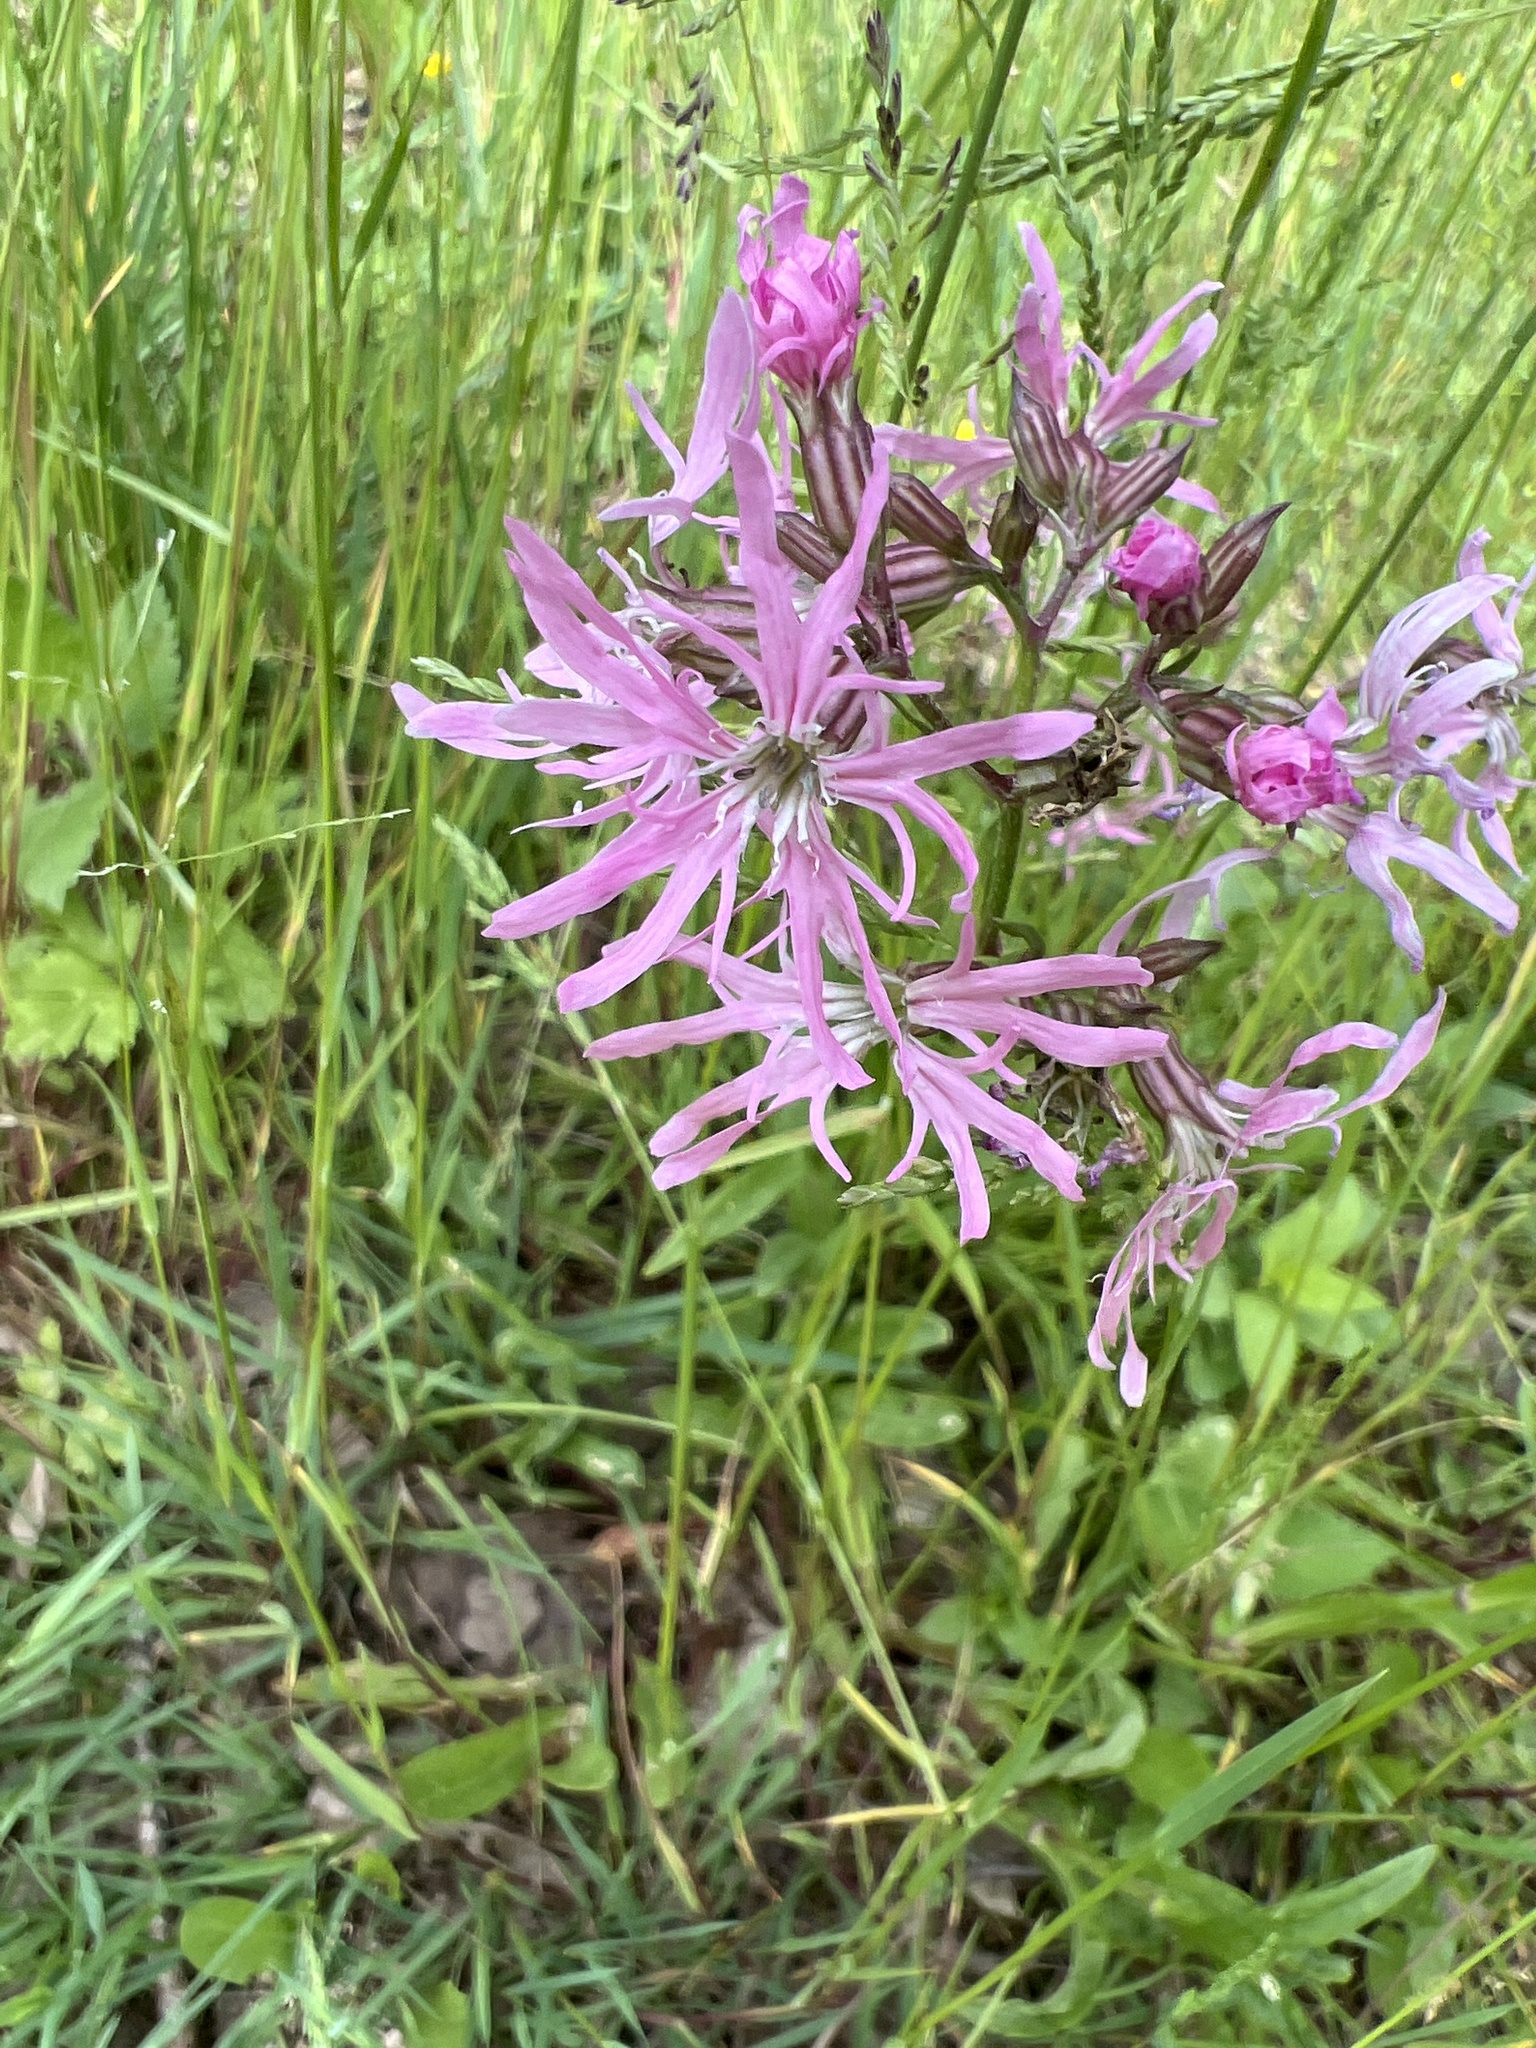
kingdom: Plantae
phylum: Tracheophyta
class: Magnoliopsida
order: Caryophyllales
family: Caryophyllaceae
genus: Silene
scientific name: Silene flos-cuculi
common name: Ragged-robin
